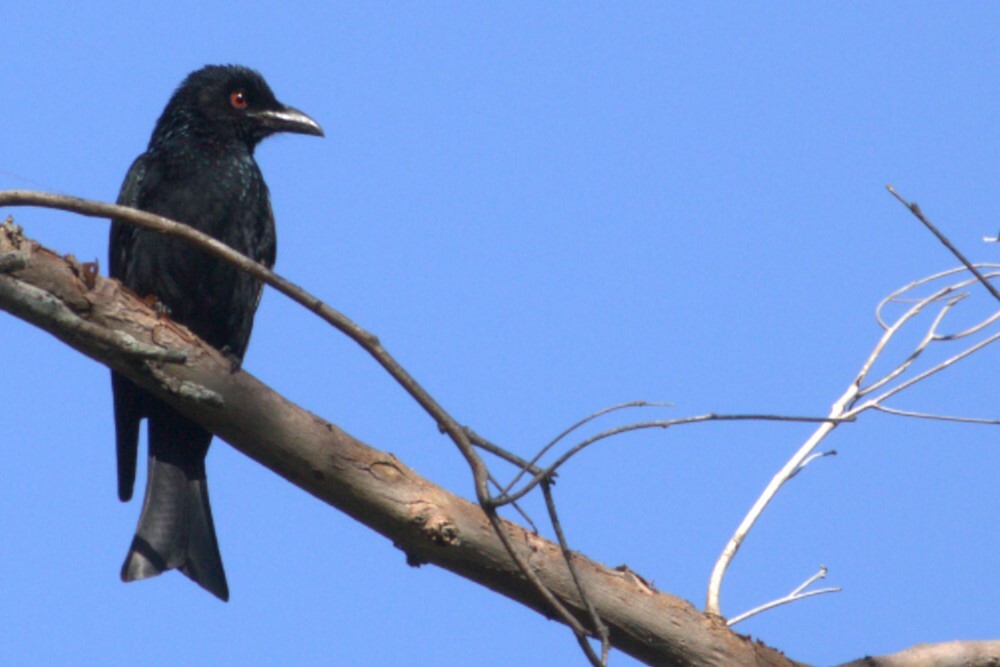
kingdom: Animalia
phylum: Chordata
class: Aves
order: Passeriformes
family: Dicruridae
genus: Dicrurus
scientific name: Dicrurus bracteatus
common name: Spangled drongo
